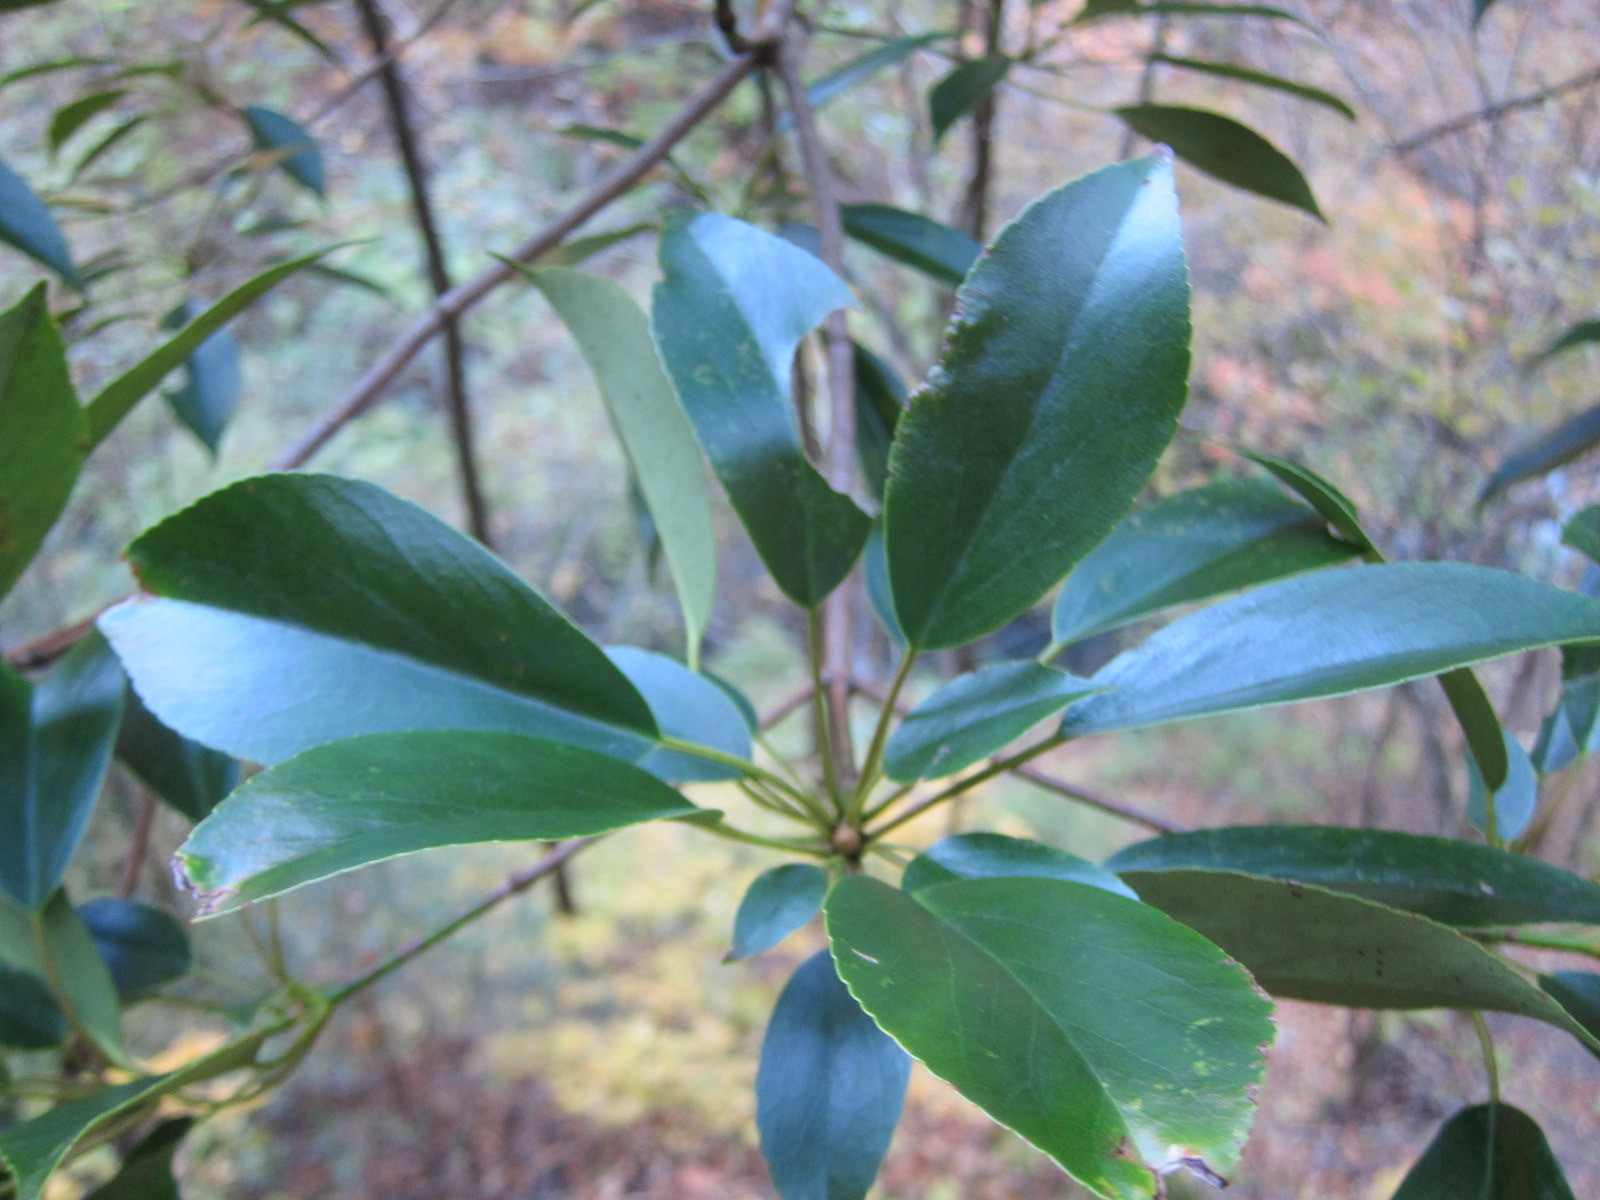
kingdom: Plantae
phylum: Tracheophyta
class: Magnoliopsida
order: Trochodendrales
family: Trochodendraceae
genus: Trochodendron
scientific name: Trochodendron aralioides
